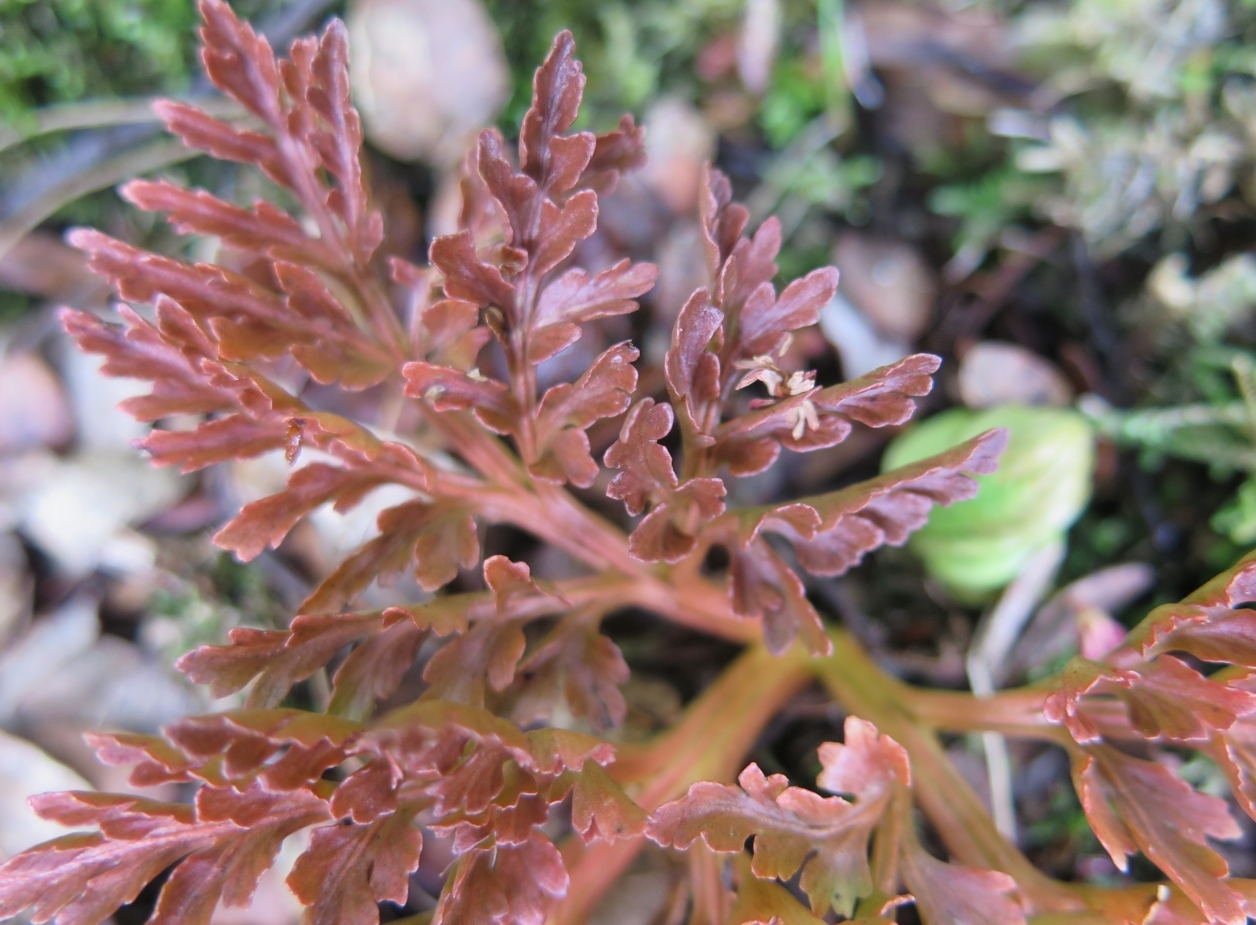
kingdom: Plantae
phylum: Tracheophyta
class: Polypodiopsida
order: Ophioglossales
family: Ophioglossaceae
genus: Sceptridium
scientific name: Sceptridium australe
